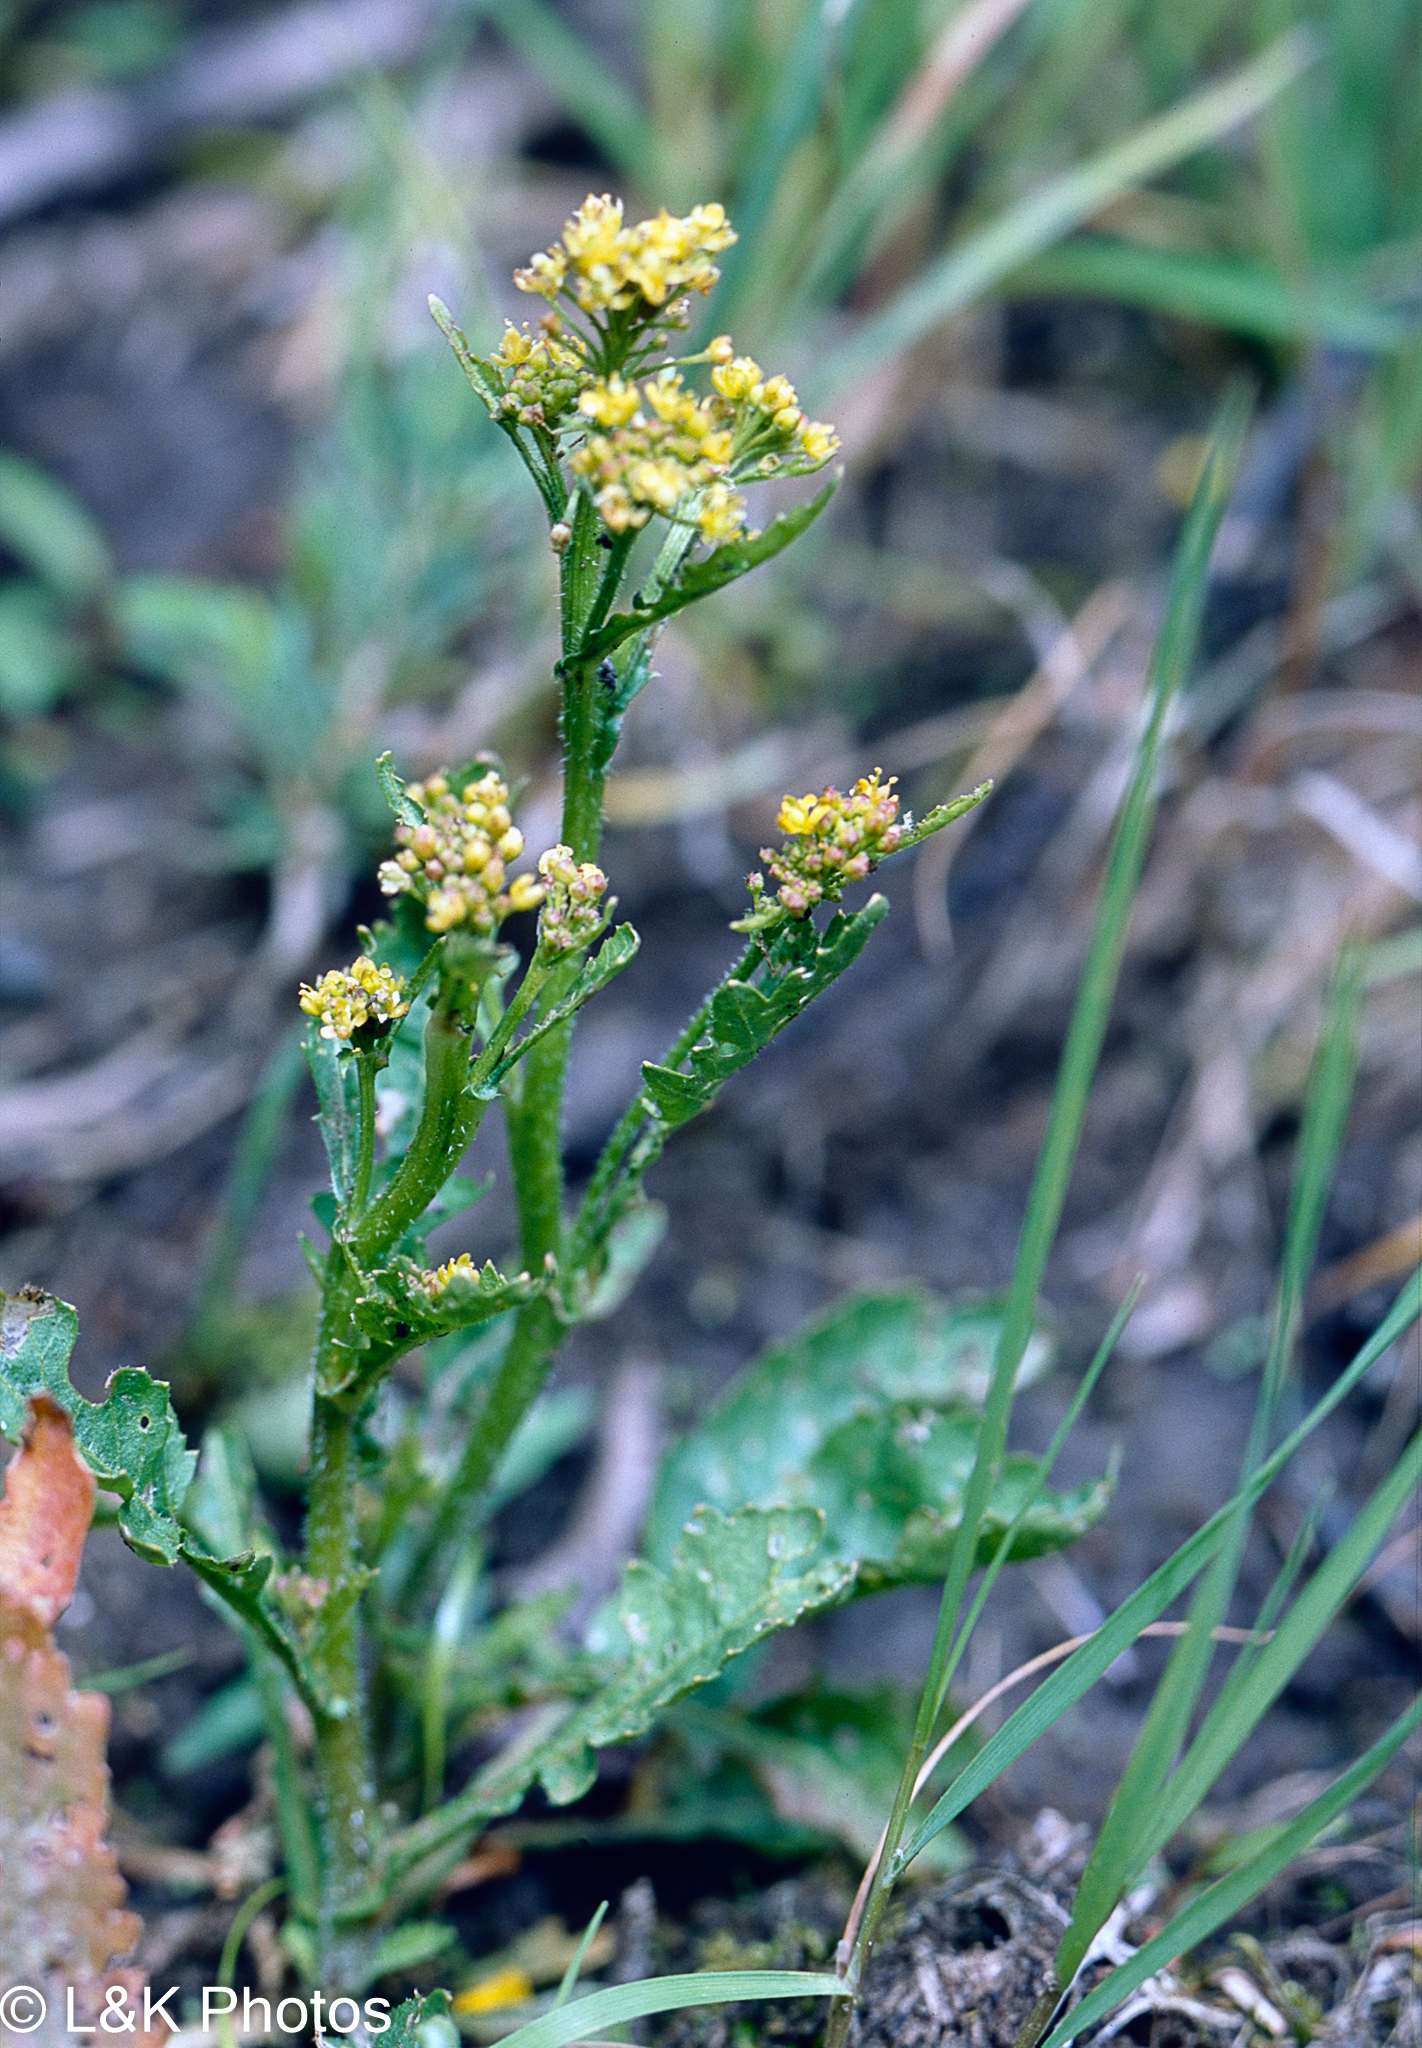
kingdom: Plantae
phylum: Tracheophyta
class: Magnoliopsida
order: Brassicales
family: Brassicaceae
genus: Rorippa
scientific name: Rorippa palustris
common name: Marsh yellow-cress
